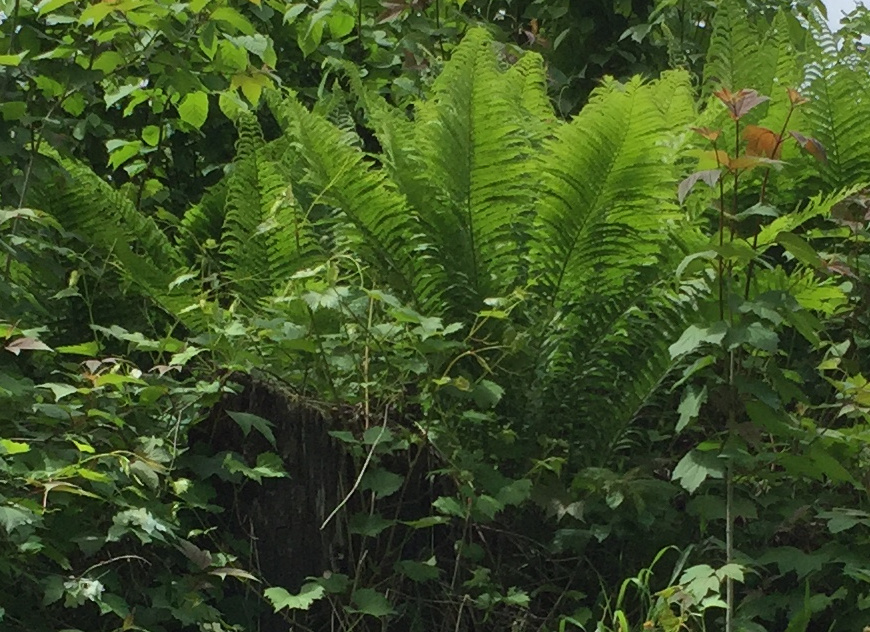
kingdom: Plantae
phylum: Tracheophyta
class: Polypodiopsida
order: Polypodiales
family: Onocleaceae
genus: Matteuccia
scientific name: Matteuccia struthiopteris
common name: Ostrich fern
